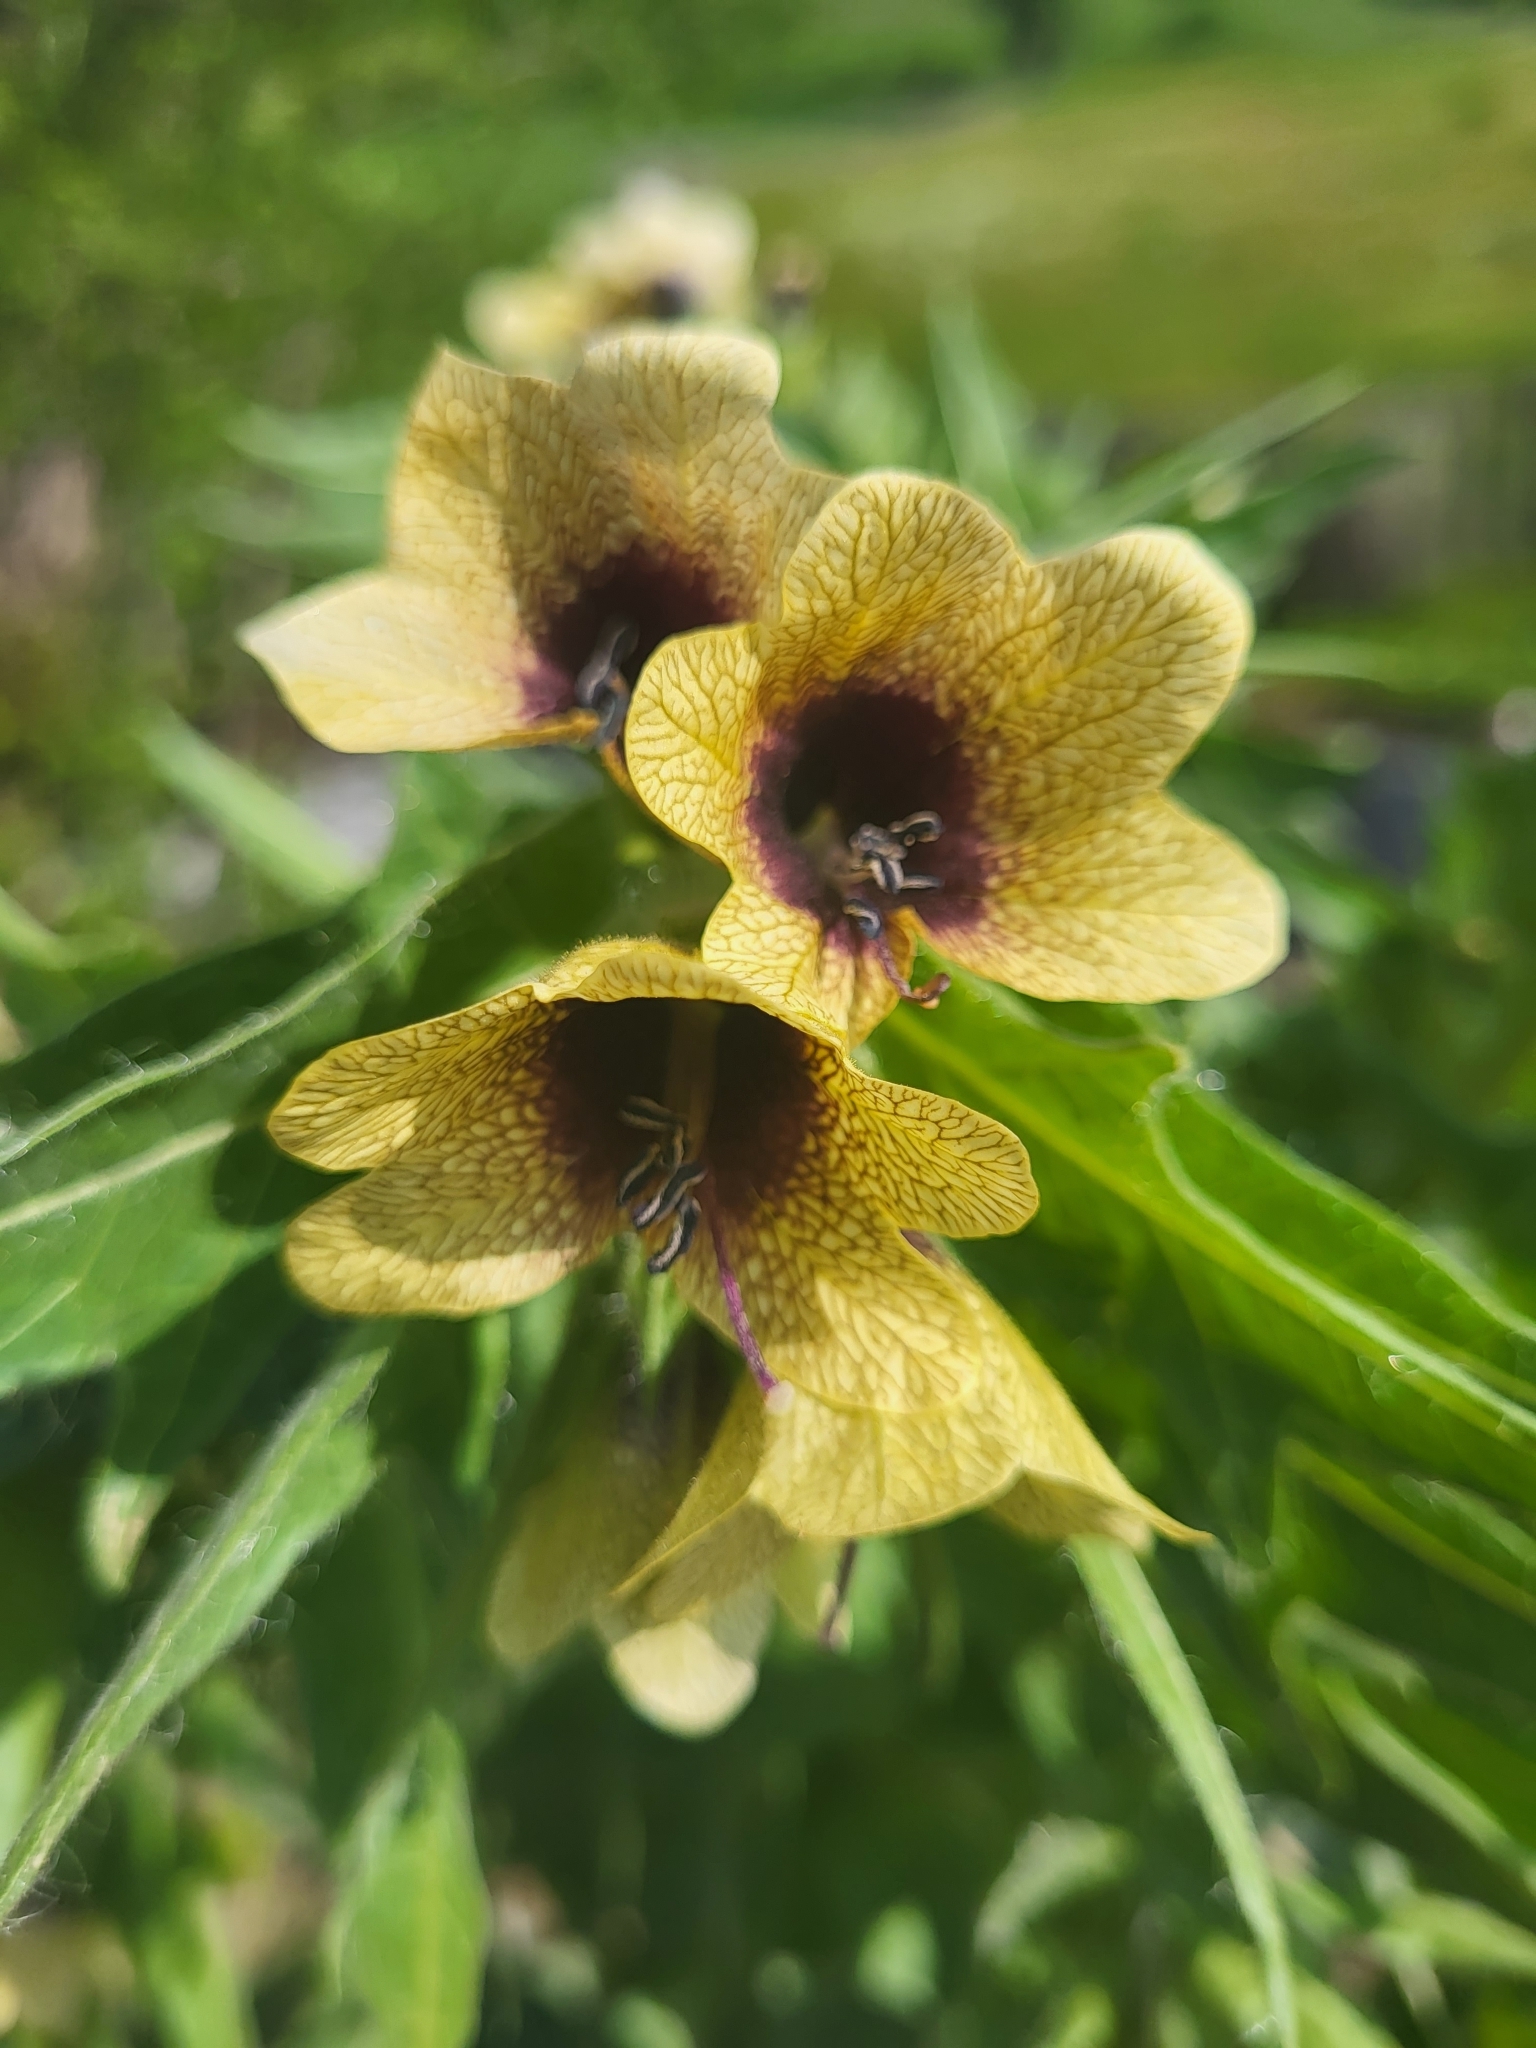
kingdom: Plantae
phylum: Tracheophyta
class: Magnoliopsida
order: Solanales
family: Solanaceae
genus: Hyoscyamus
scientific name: Hyoscyamus niger
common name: Henbane
